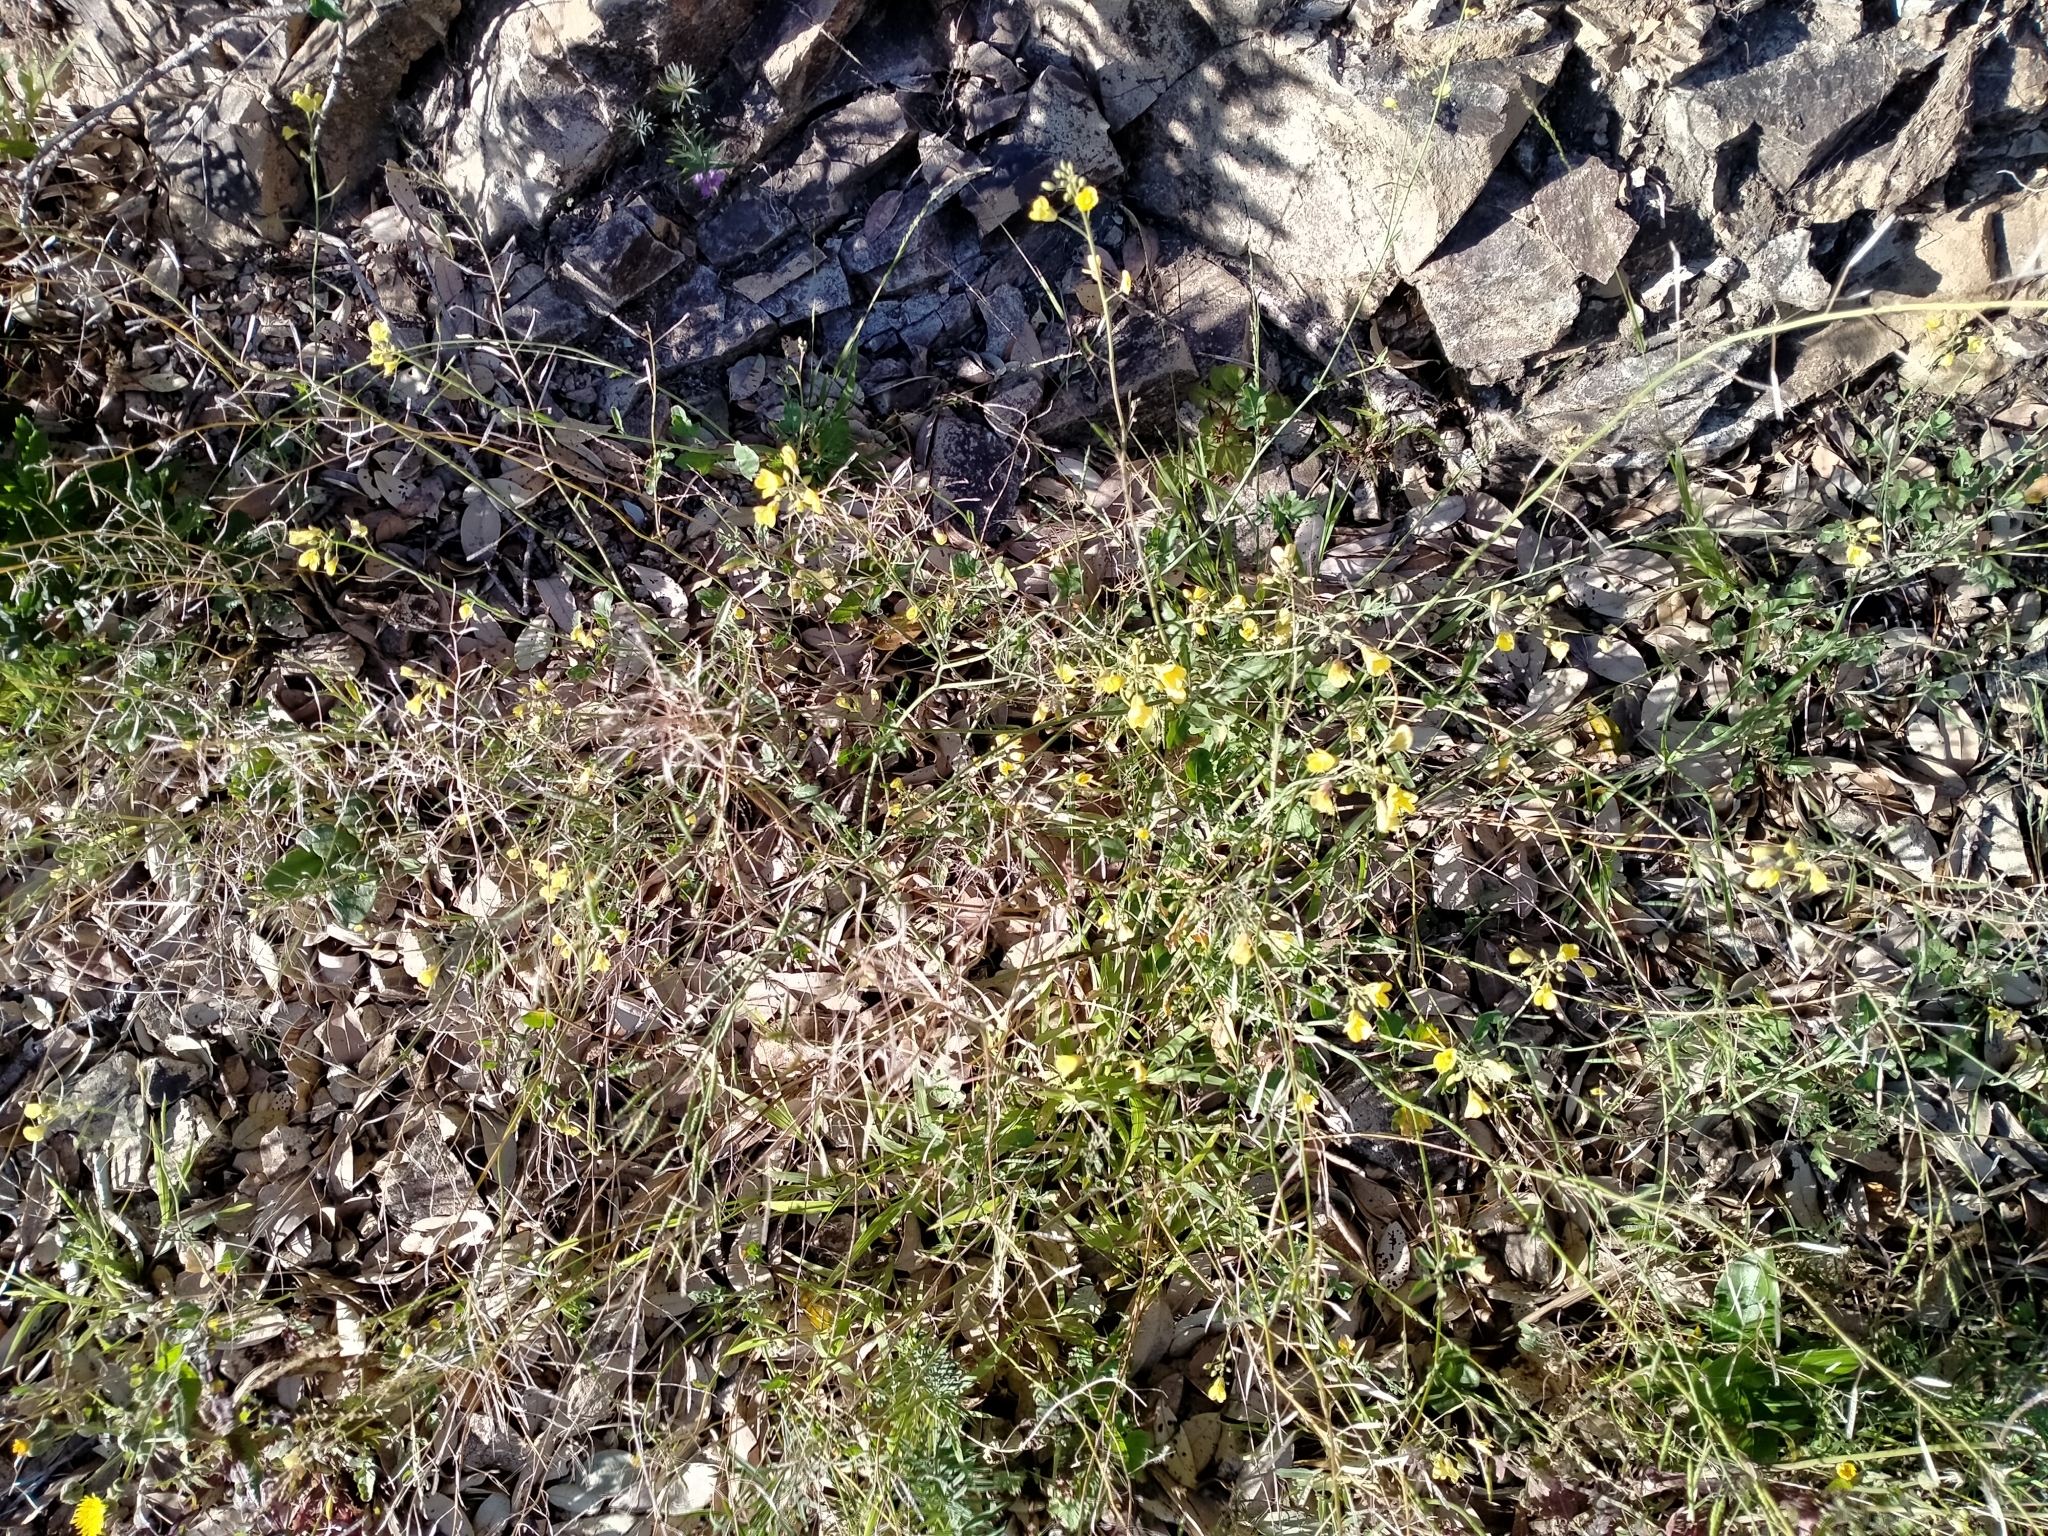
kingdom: Plantae
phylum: Tracheophyta
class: Magnoliopsida
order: Brassicales
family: Brassicaceae
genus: Brassica
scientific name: Brassica rapa
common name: Field mustard
